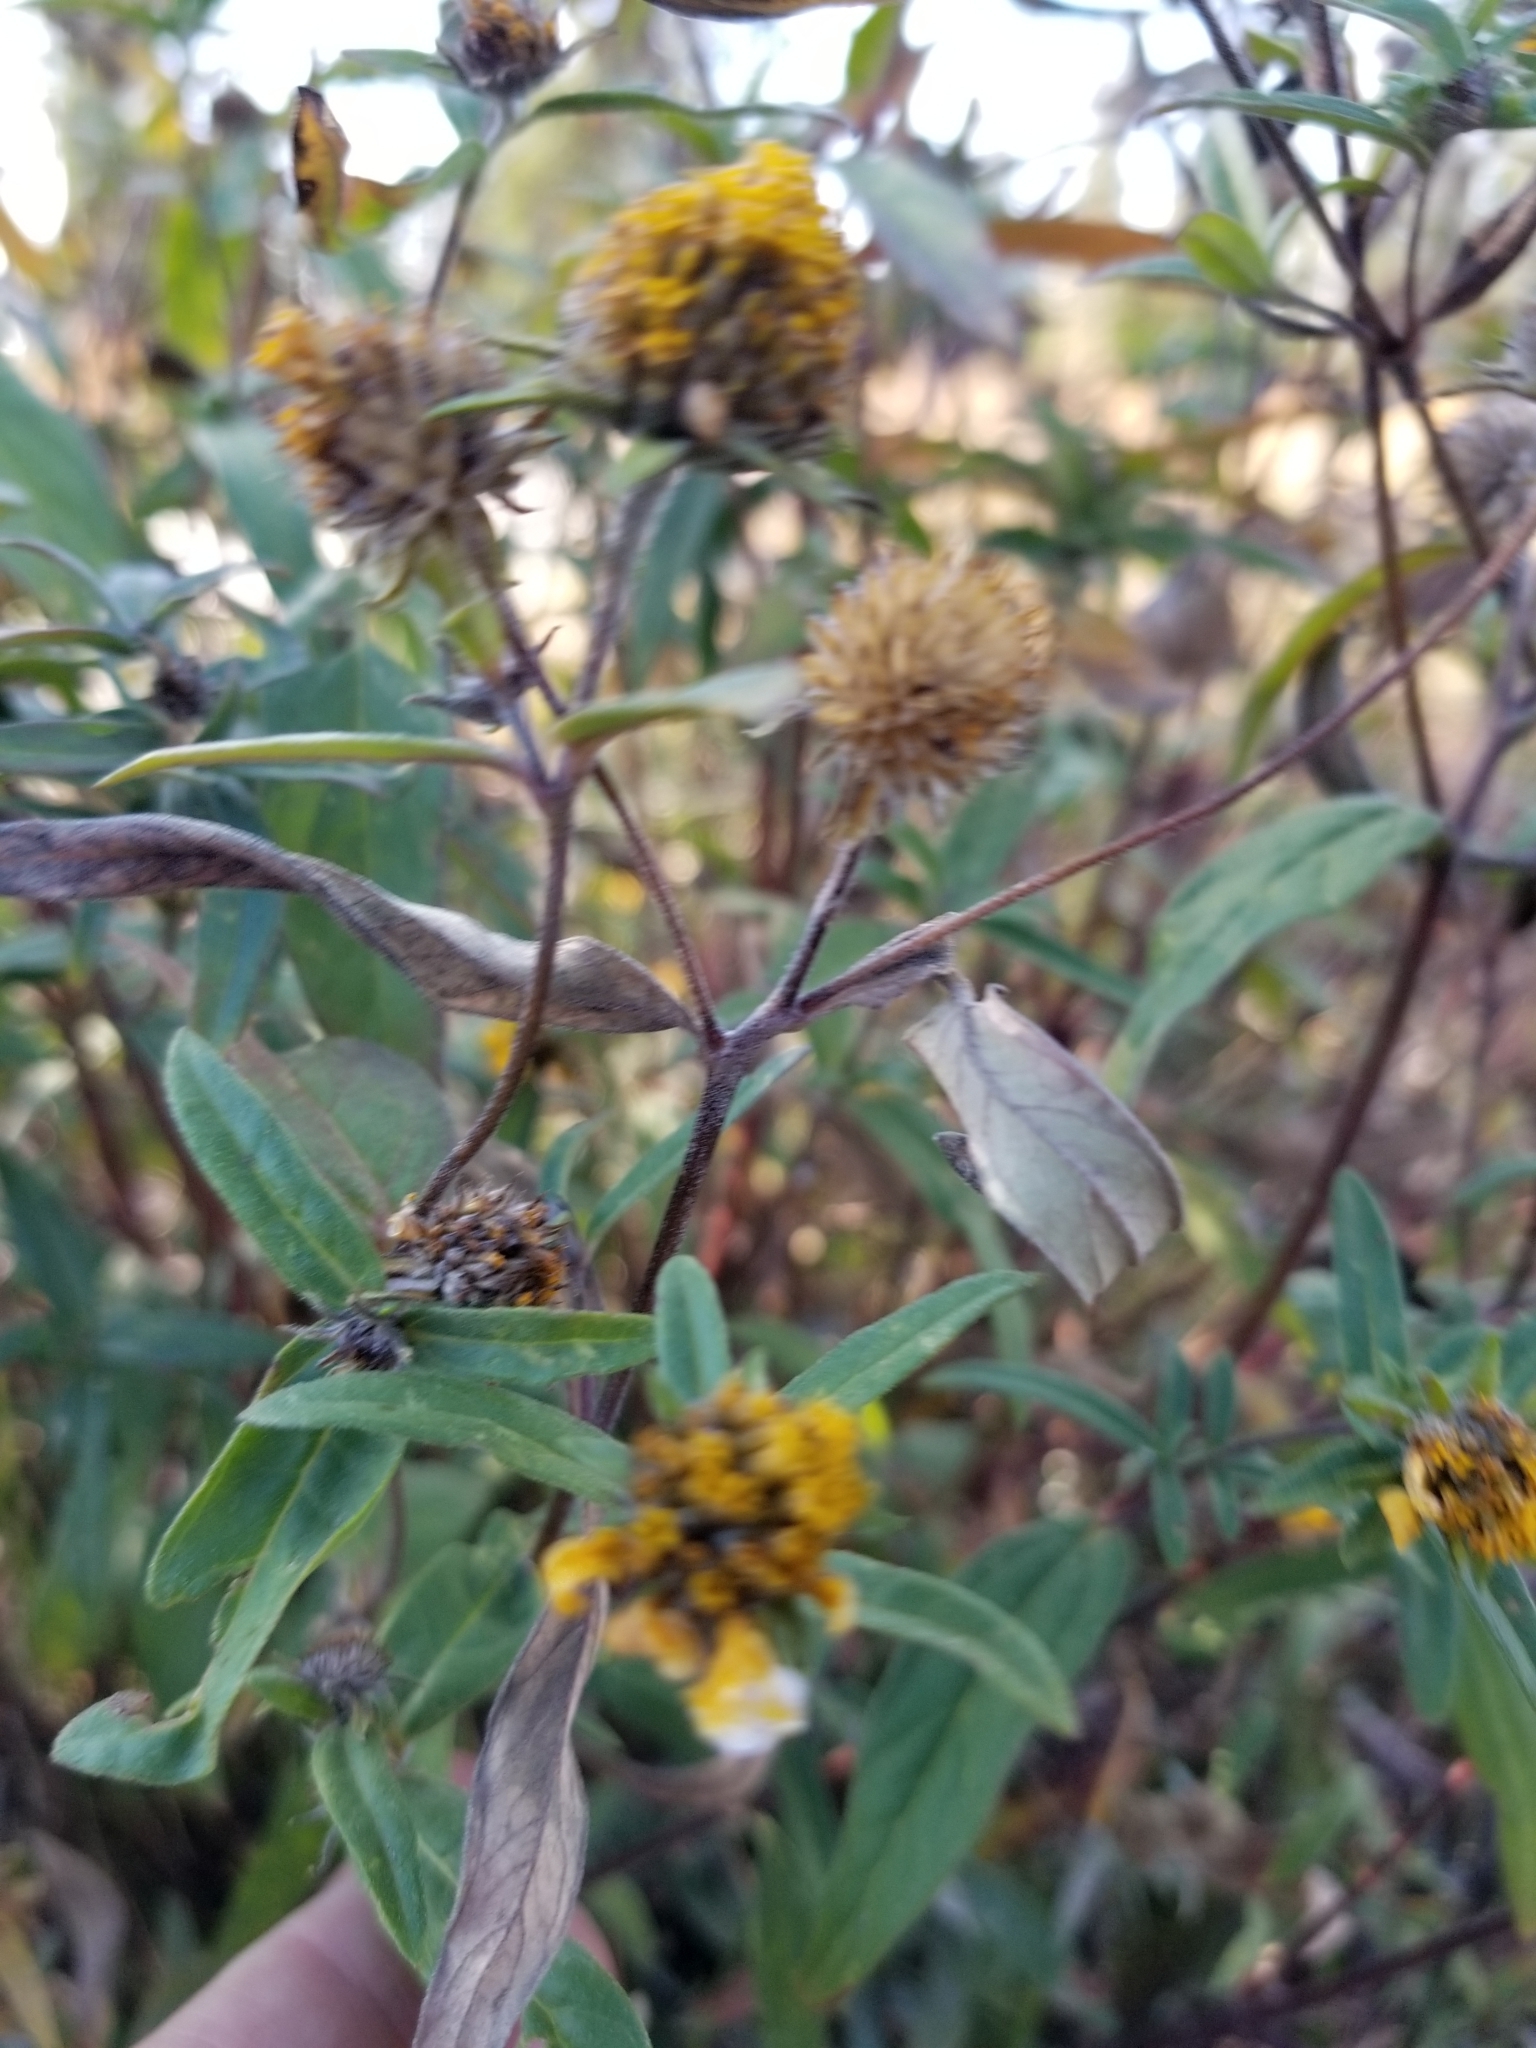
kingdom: Plantae
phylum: Tracheophyta
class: Magnoliopsida
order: Asterales
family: Asteraceae
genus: Heliomeris
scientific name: Heliomeris multiflora
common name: Showy goldeneye
